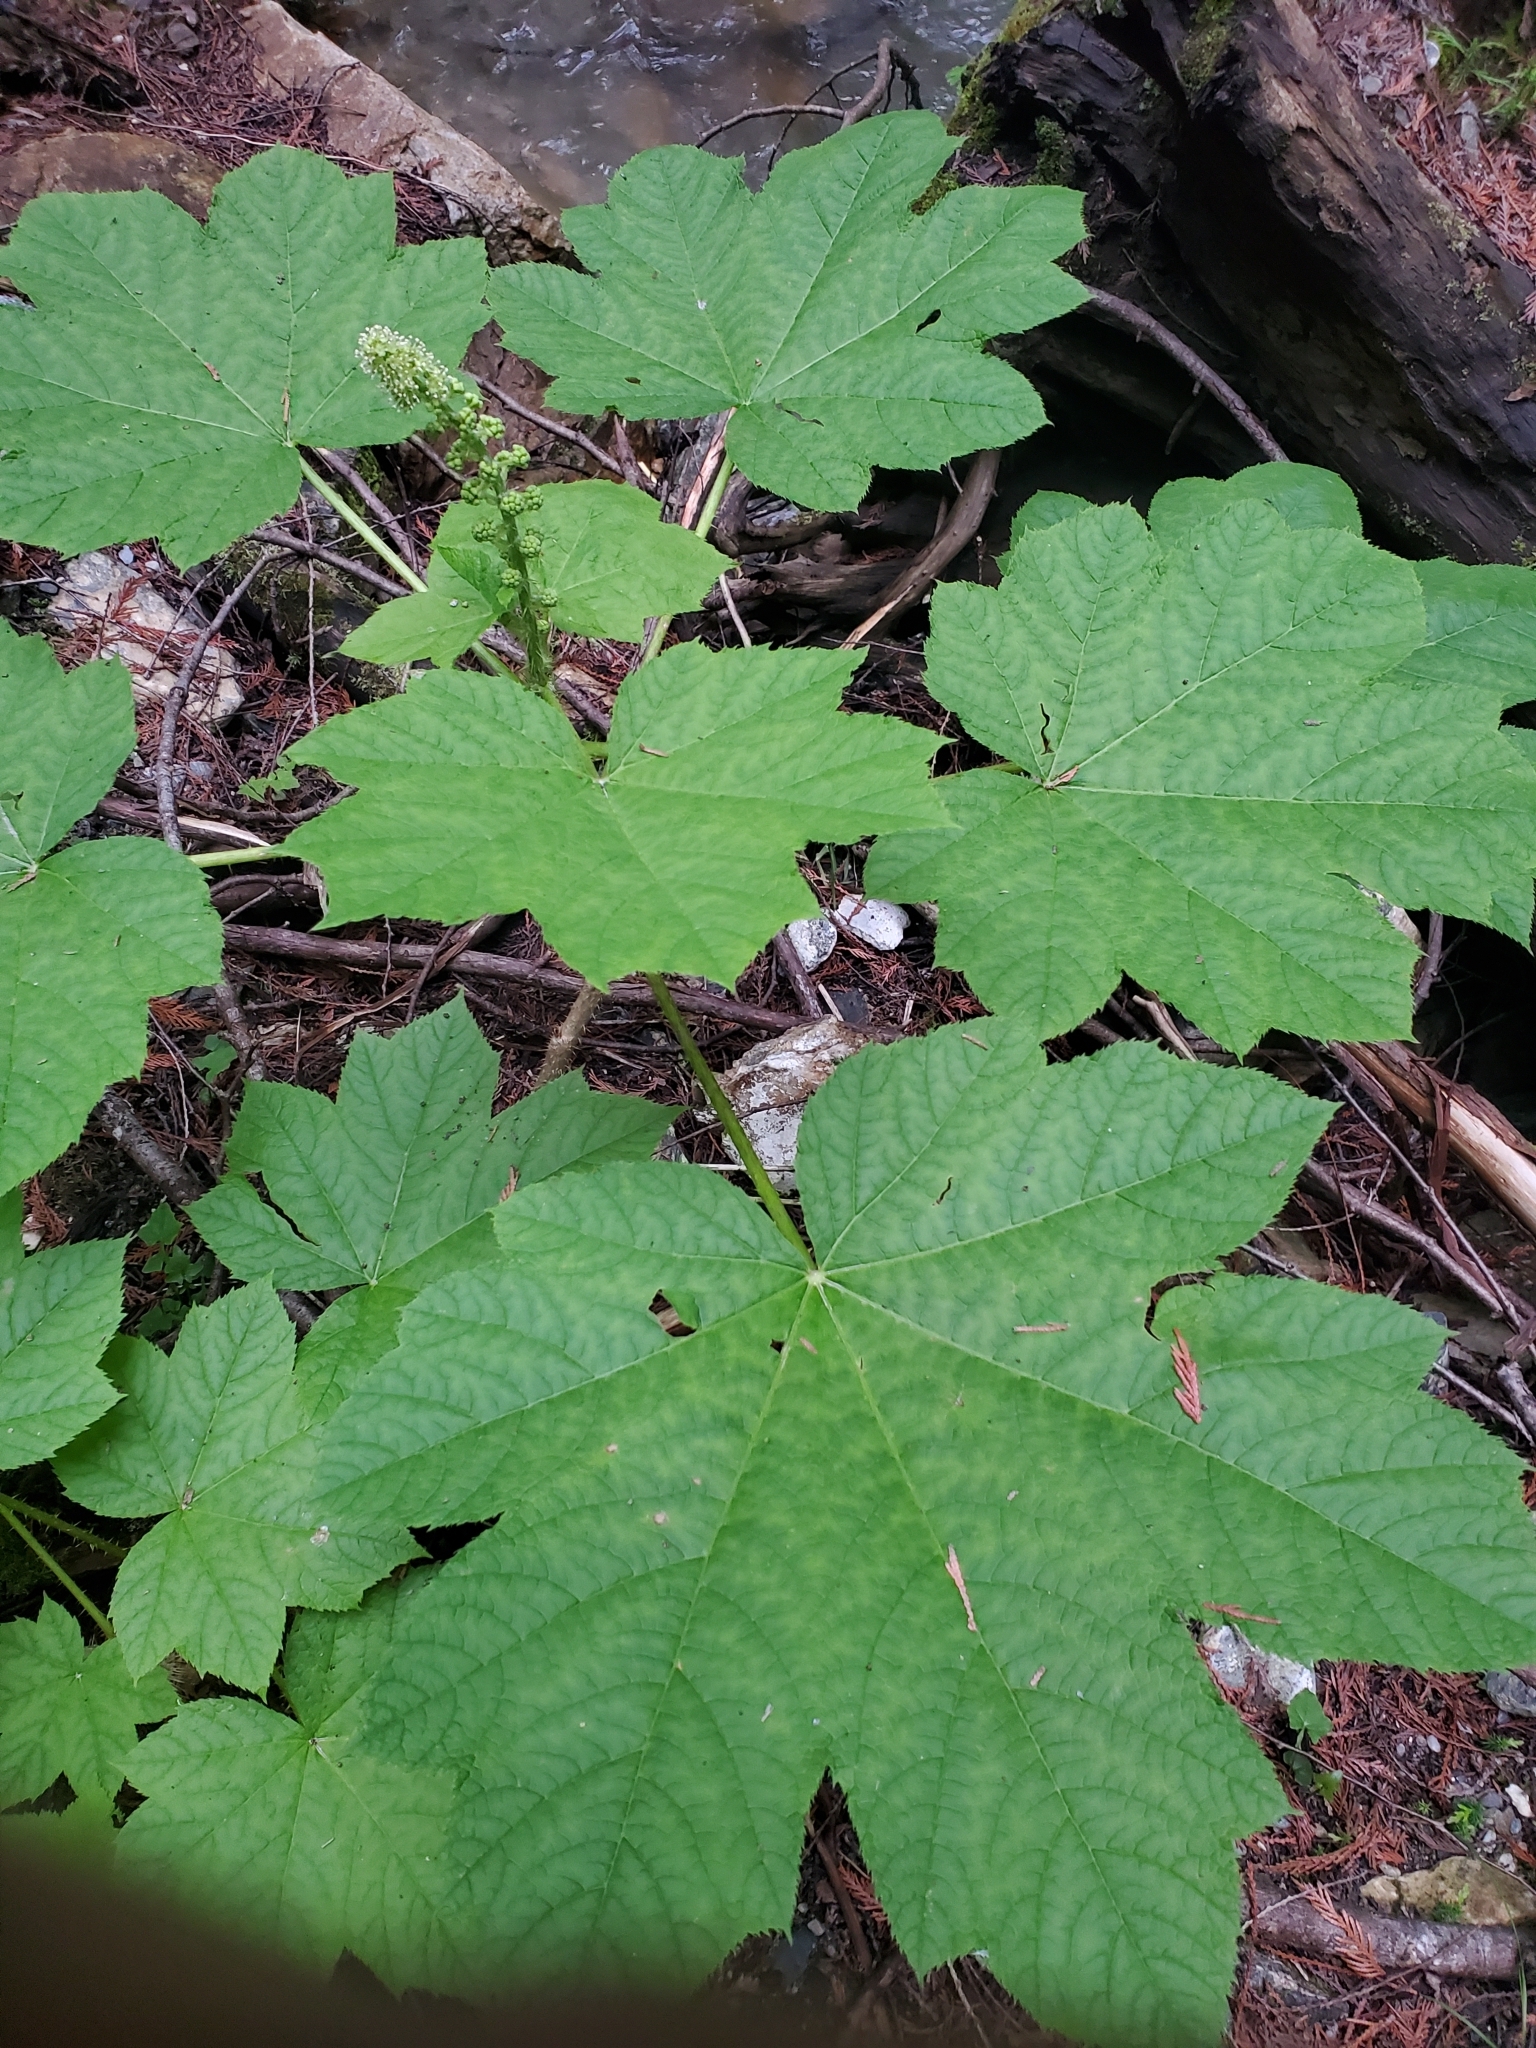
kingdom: Plantae
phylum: Tracheophyta
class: Magnoliopsida
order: Apiales
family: Araliaceae
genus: Oplopanax
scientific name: Oplopanax horridus
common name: Devil's walking-stick
